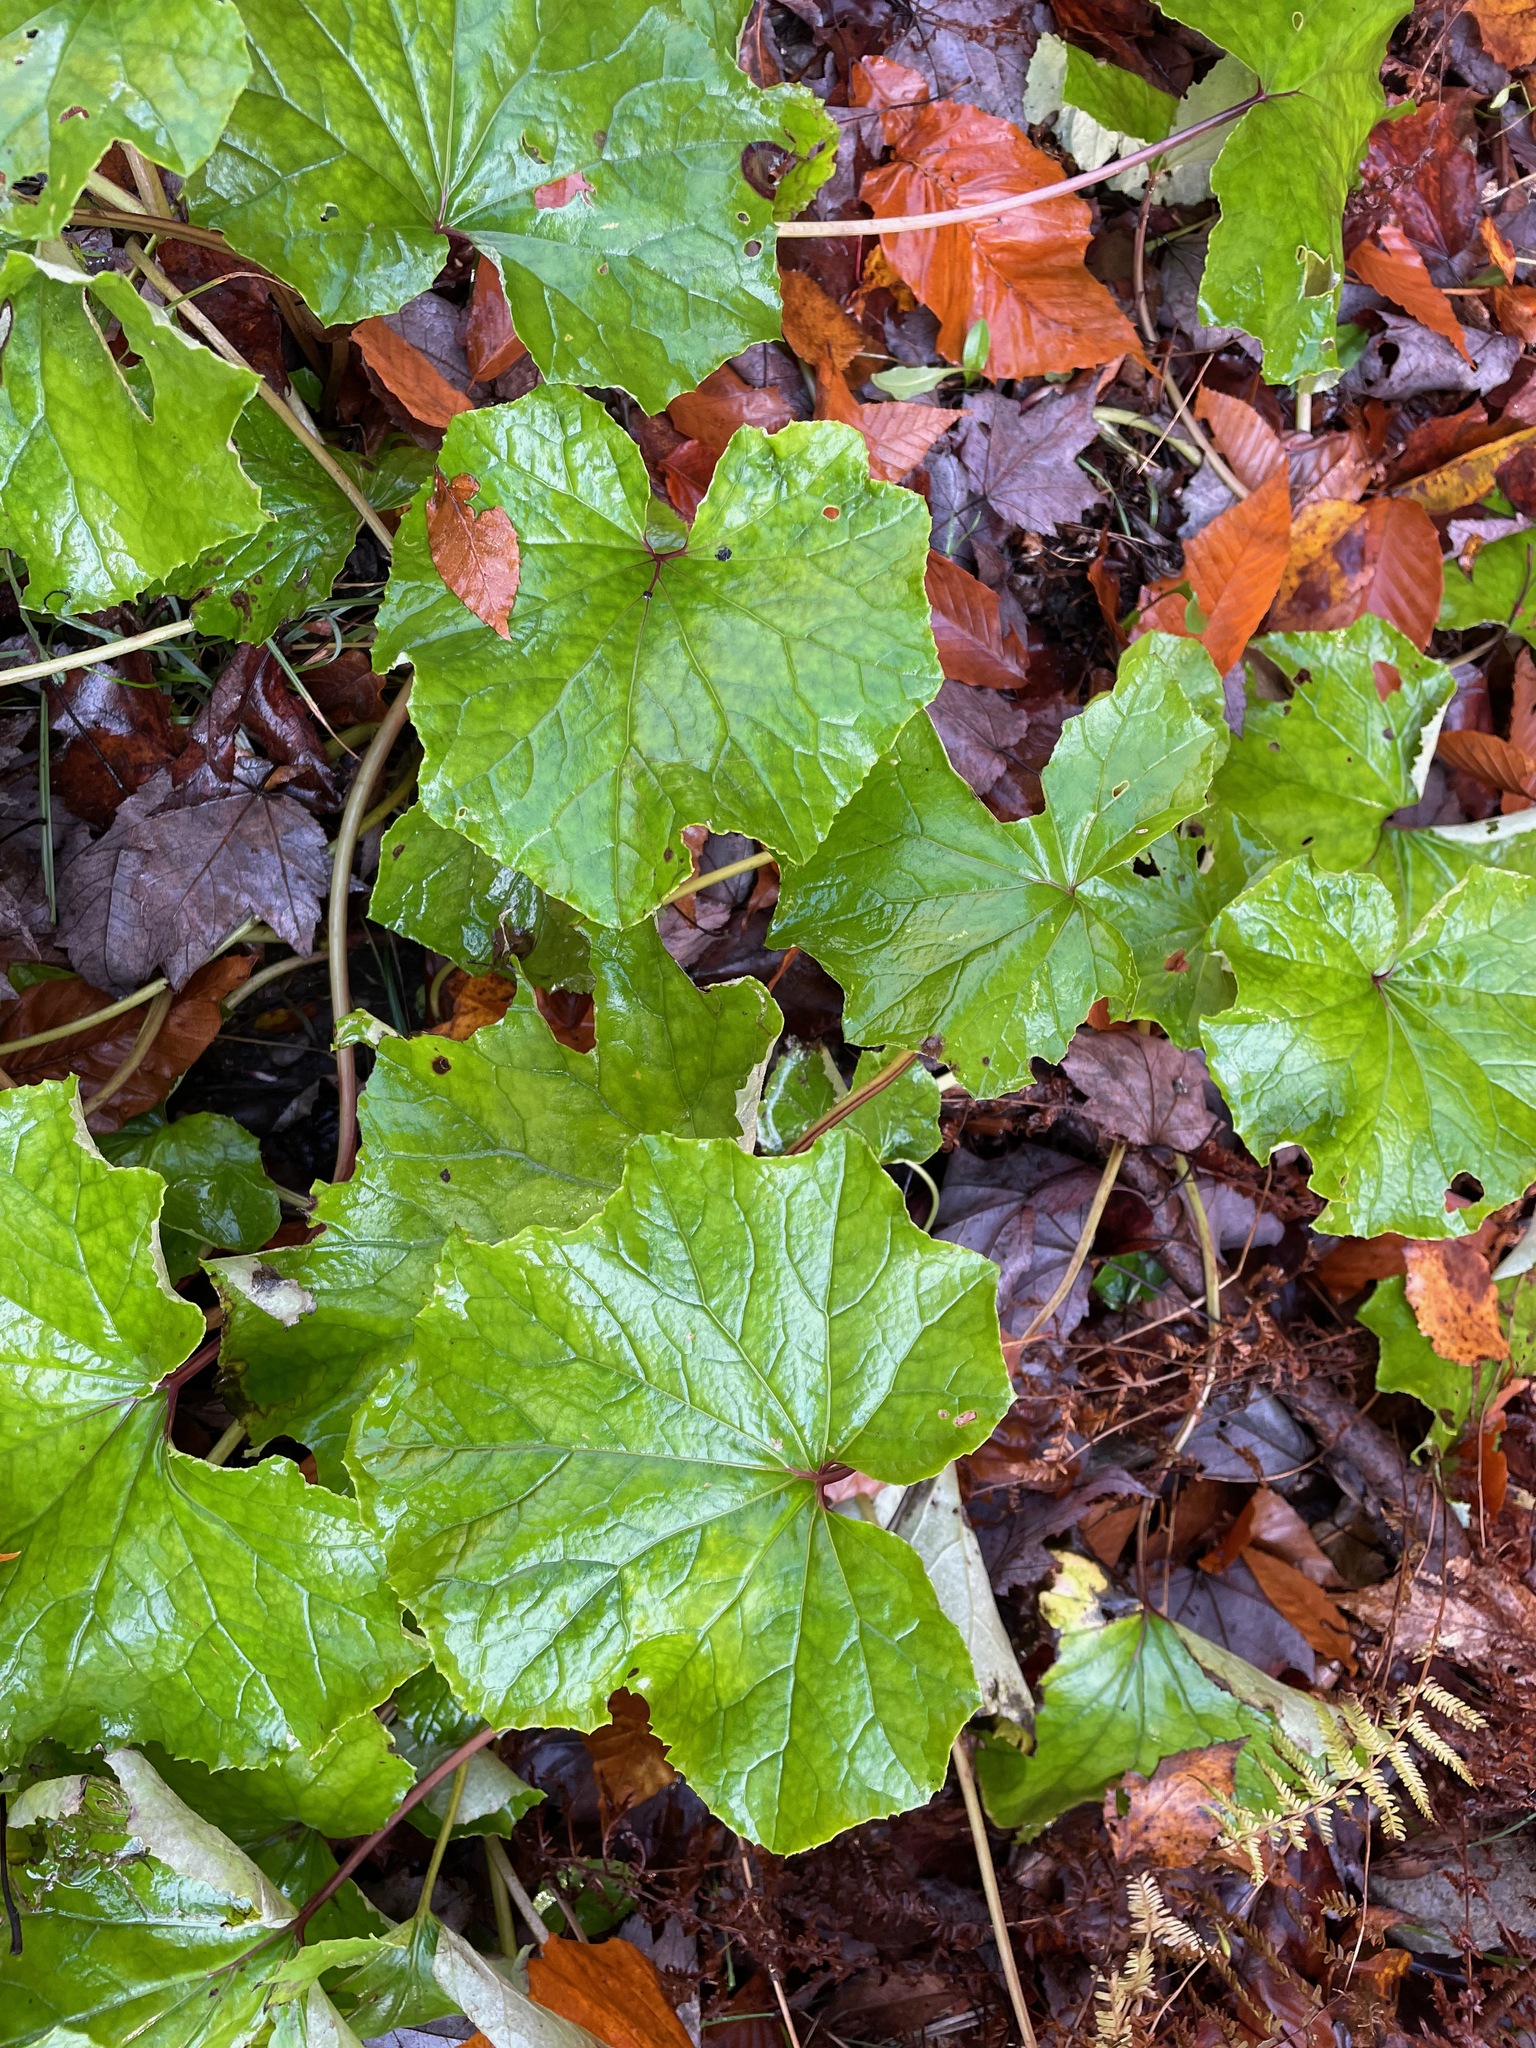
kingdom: Plantae
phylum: Tracheophyta
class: Magnoliopsida
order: Asterales
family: Asteraceae
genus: Tussilago
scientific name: Tussilago farfara
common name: Coltsfoot
